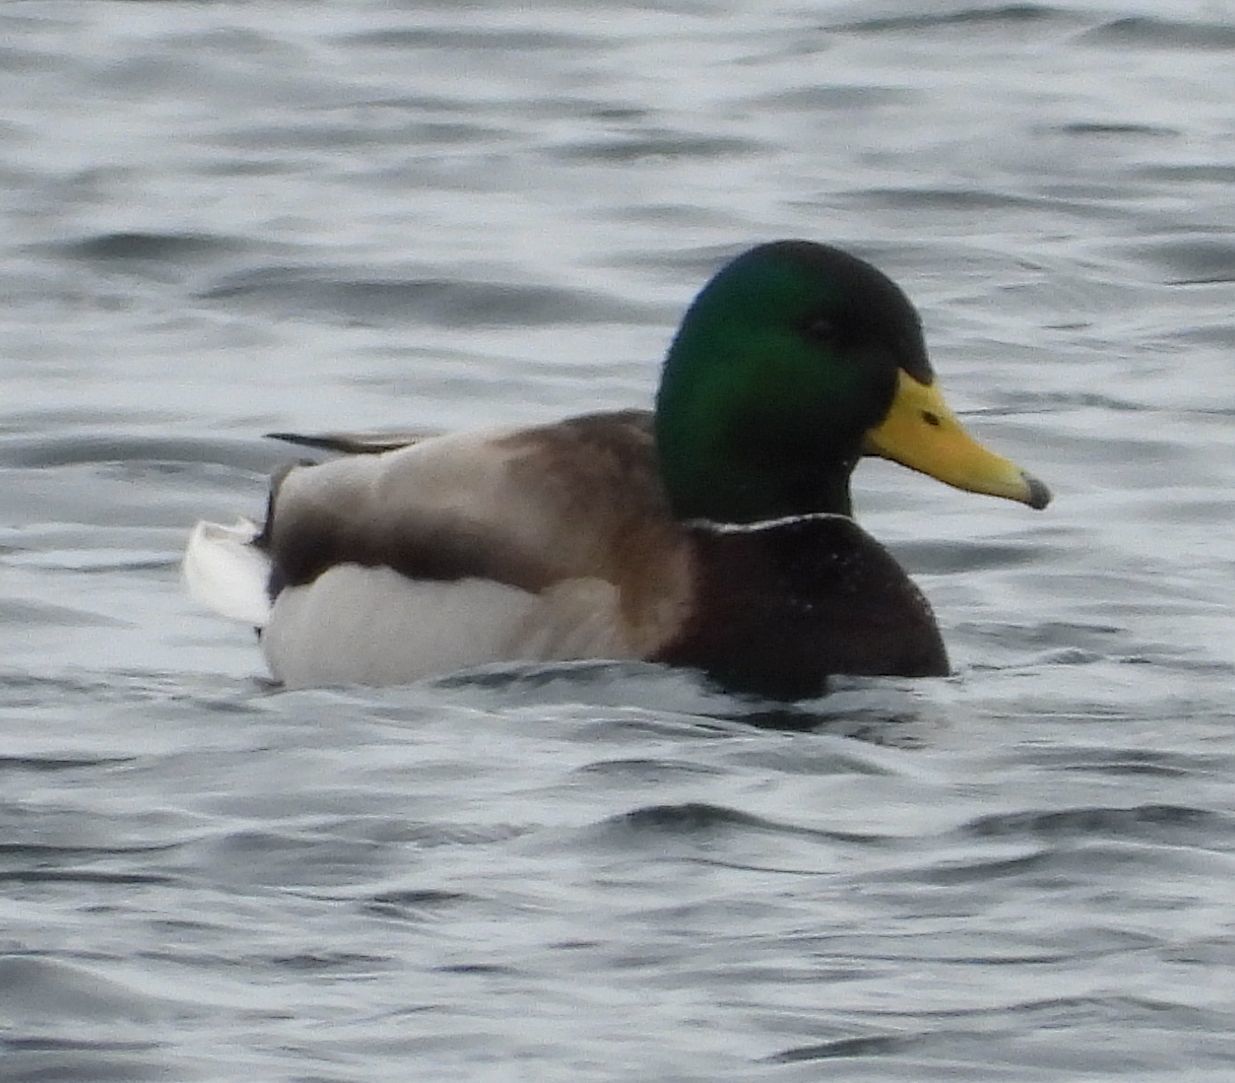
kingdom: Animalia
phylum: Chordata
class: Aves
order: Anseriformes
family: Anatidae
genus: Anas
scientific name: Anas platyrhynchos
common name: Mallard
